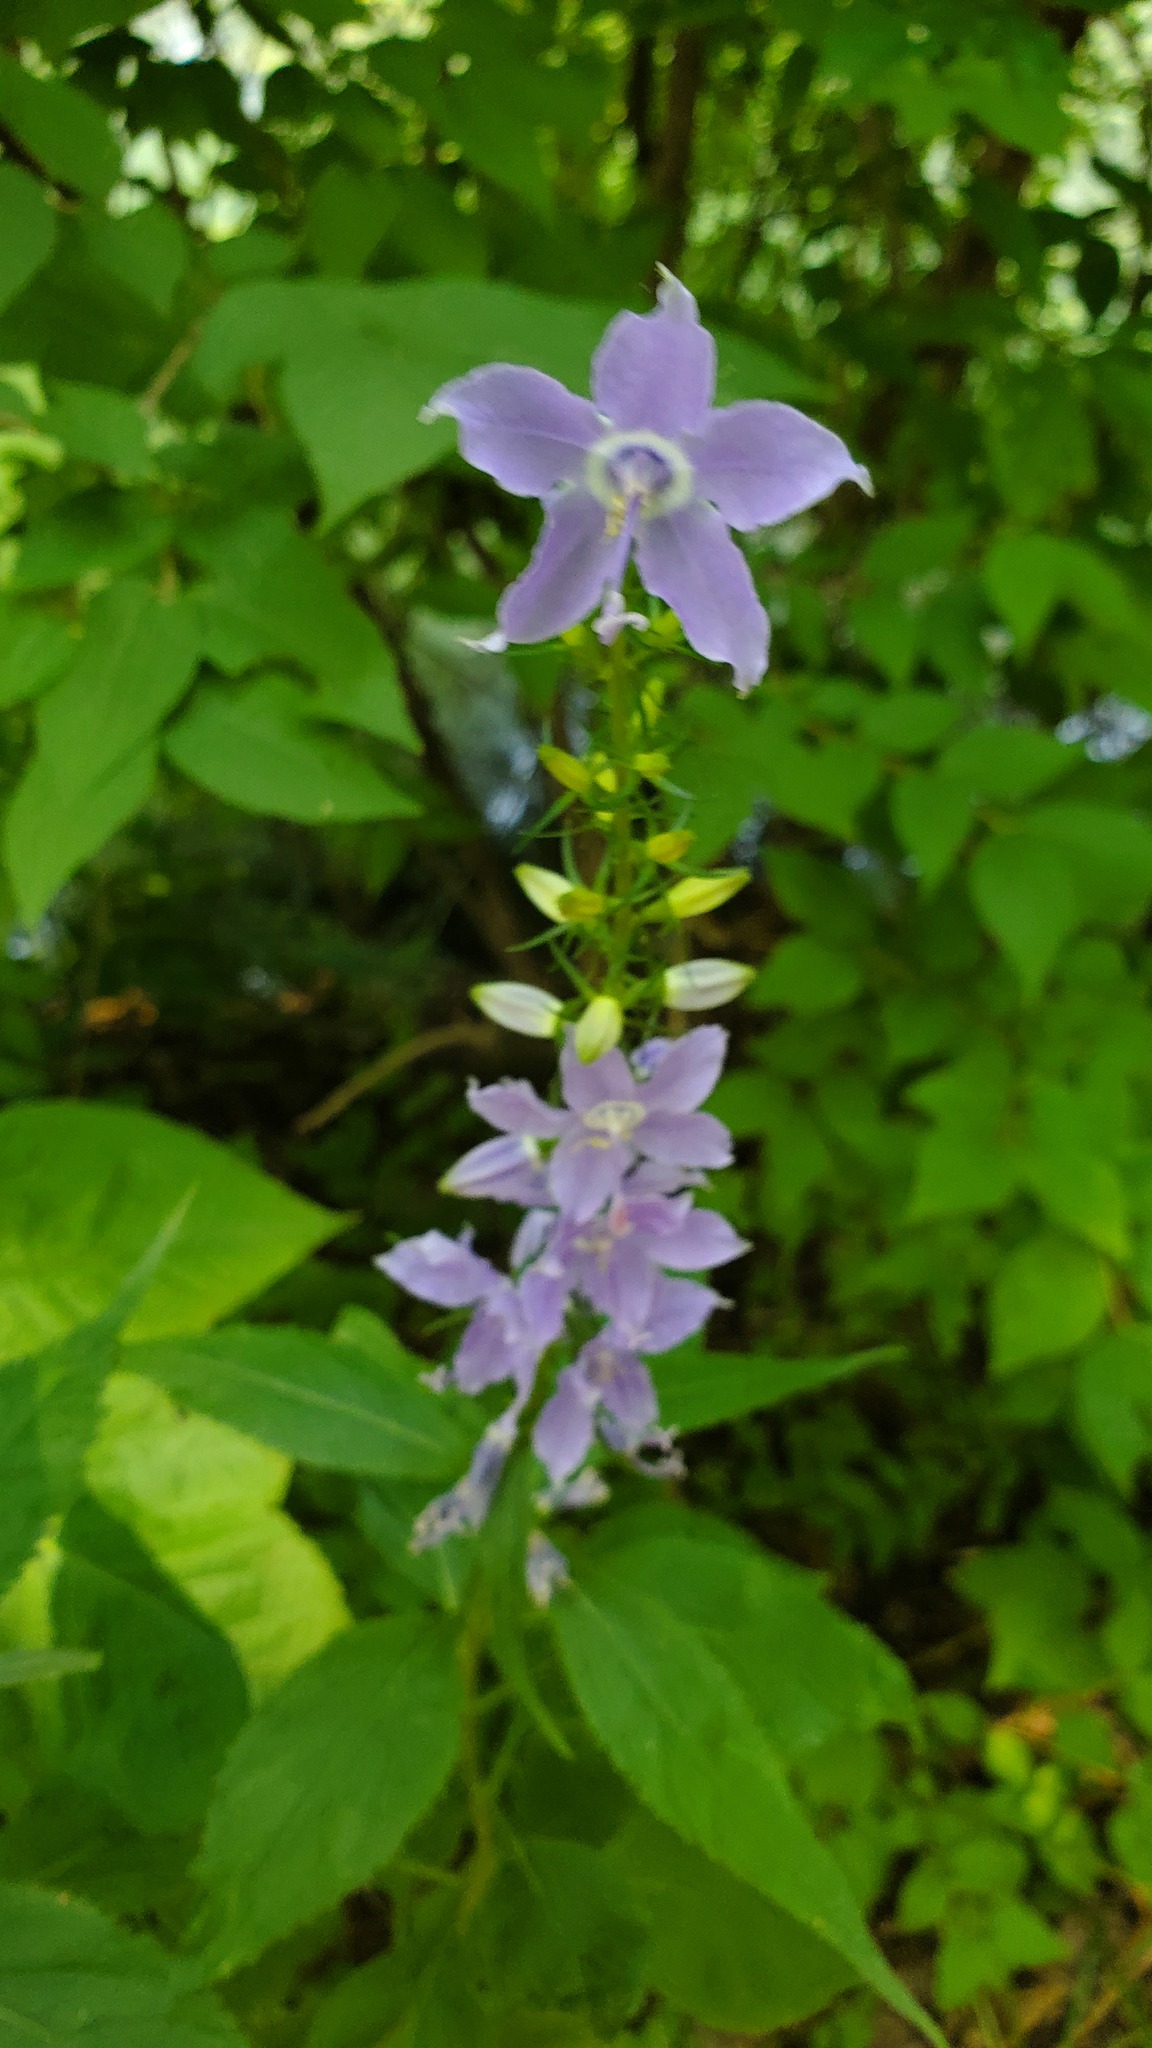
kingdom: Plantae
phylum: Tracheophyta
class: Magnoliopsida
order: Asterales
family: Campanulaceae
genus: Campanulastrum
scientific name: Campanulastrum americanum
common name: American bellflower
